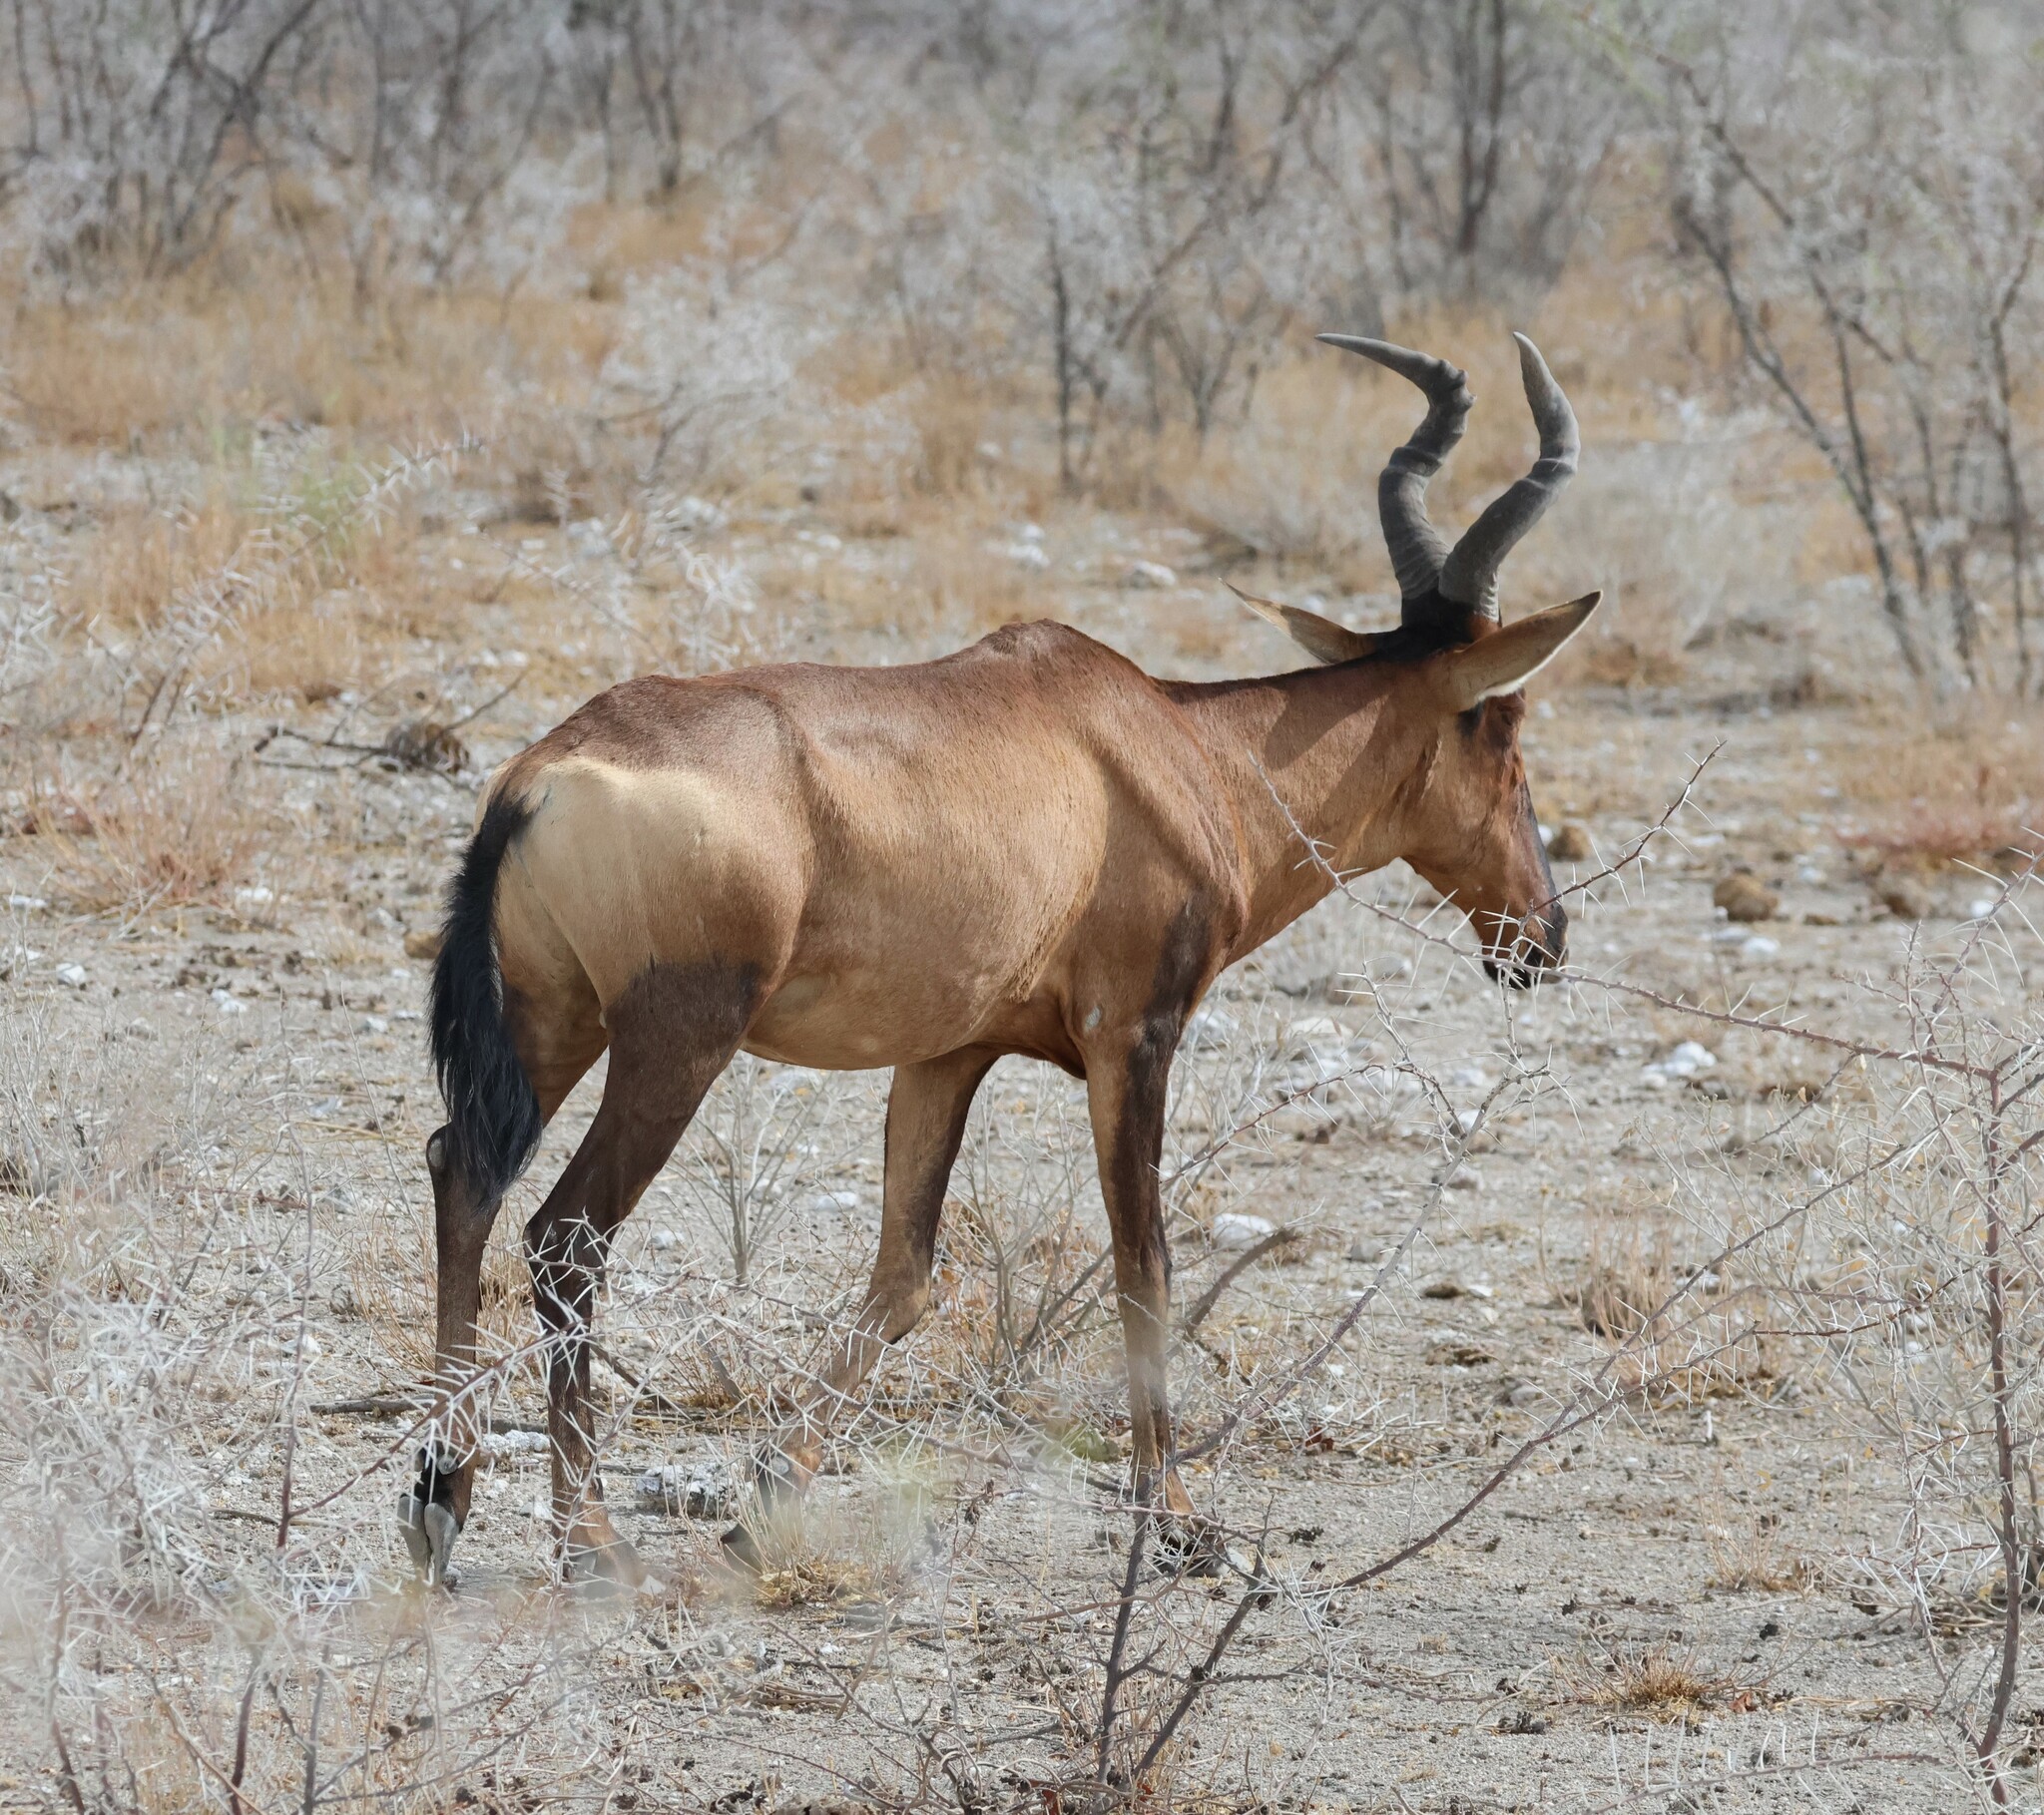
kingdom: Animalia
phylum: Chordata
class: Mammalia
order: Artiodactyla
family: Bovidae
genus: Alcelaphus
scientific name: Alcelaphus caama
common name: Red hartebeest
